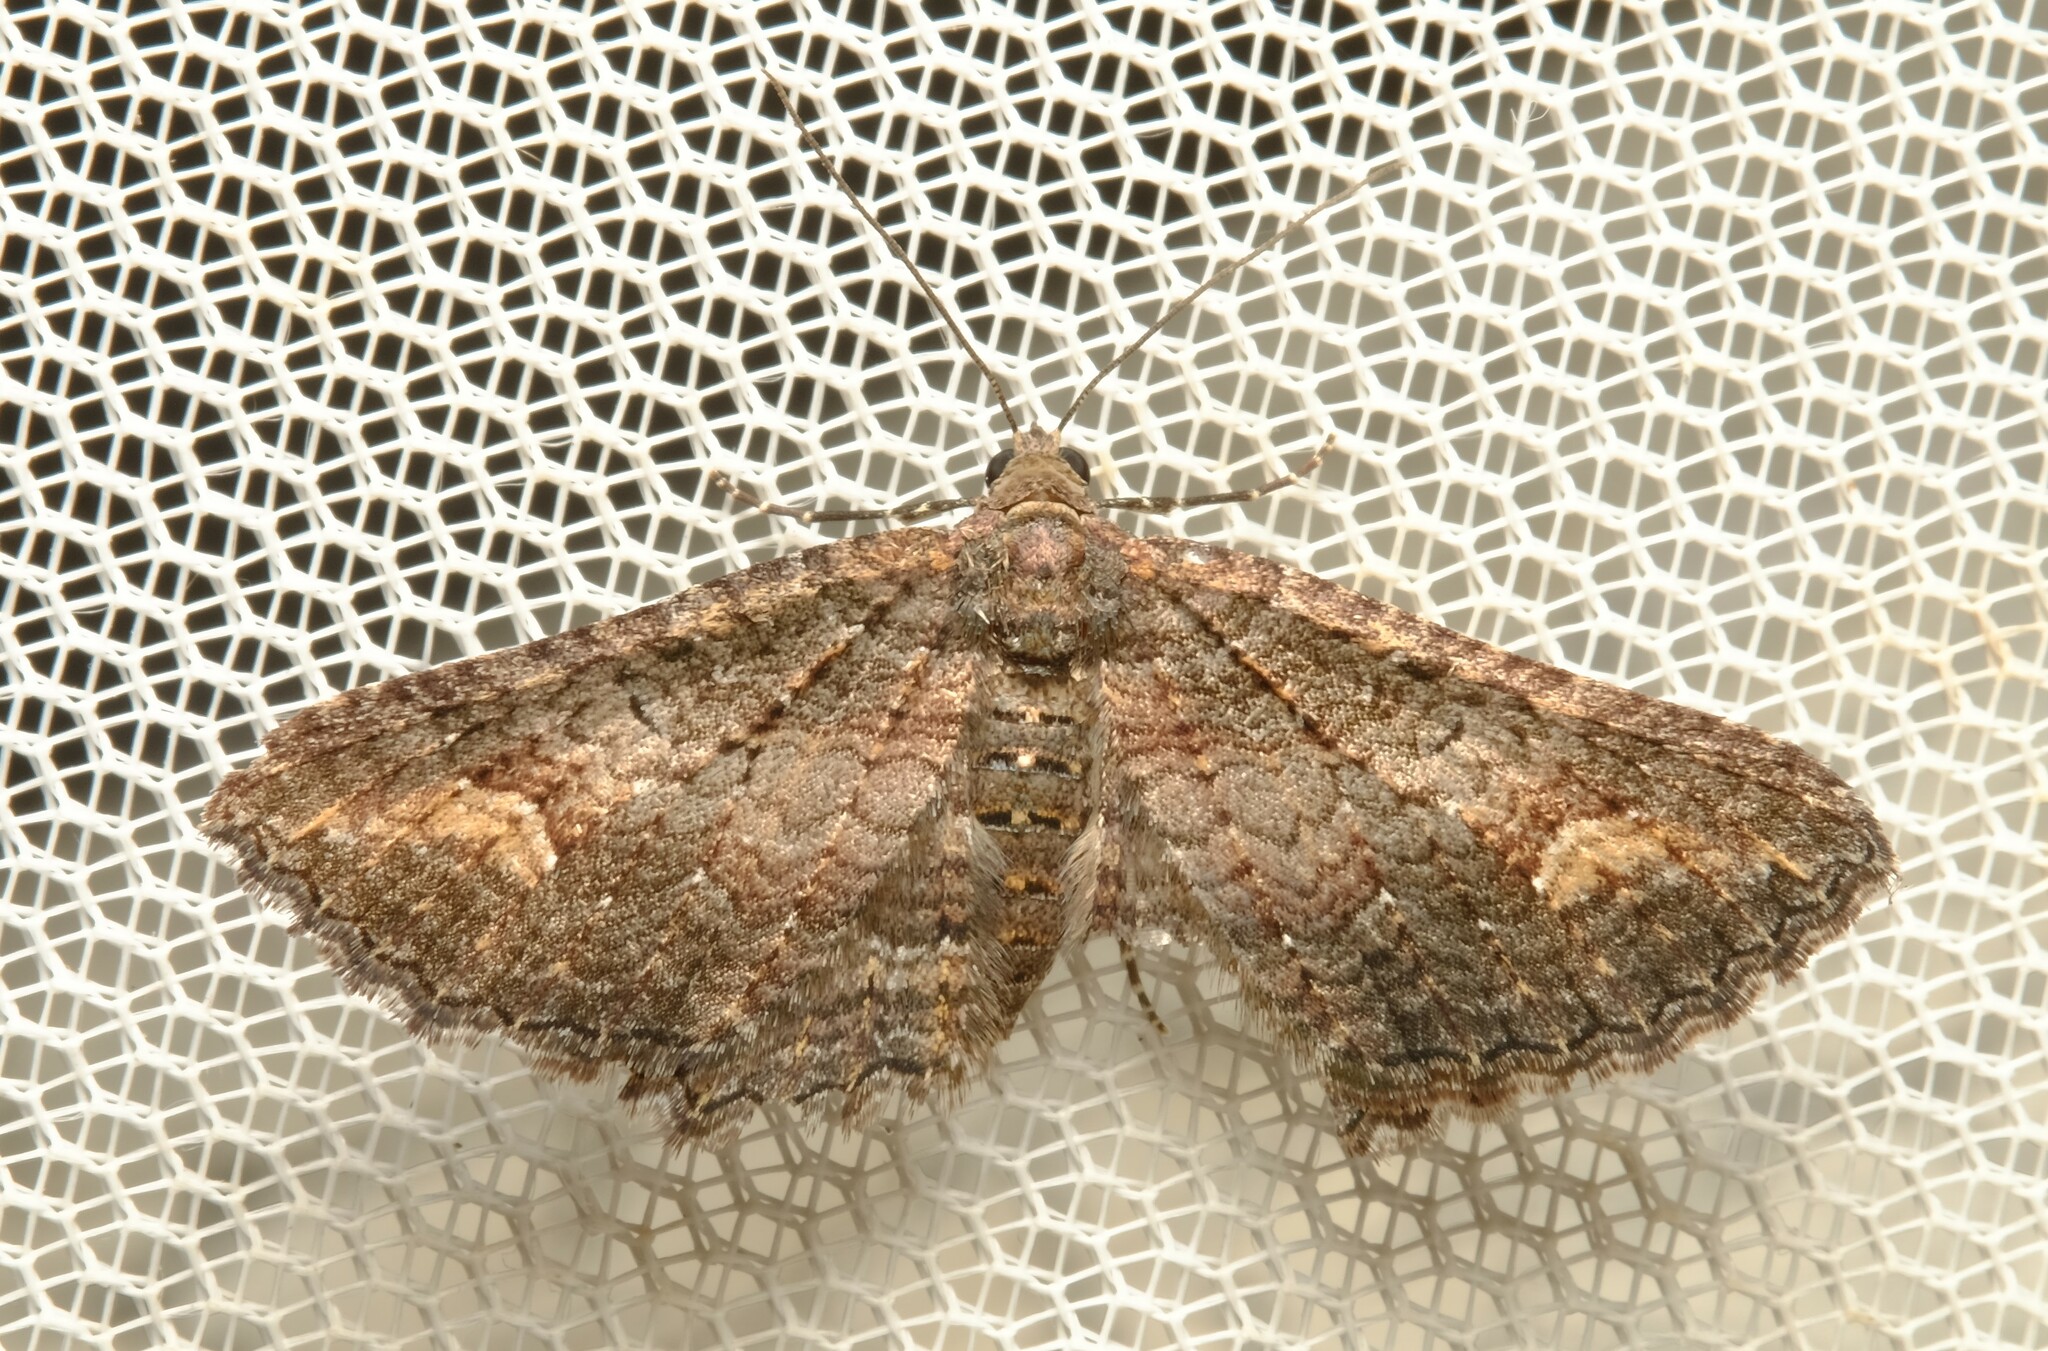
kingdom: Animalia
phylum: Arthropoda
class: Insecta
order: Lepidoptera
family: Geometridae
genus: Eupithecia
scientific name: Eupithecia Eucymatoge scotodes
